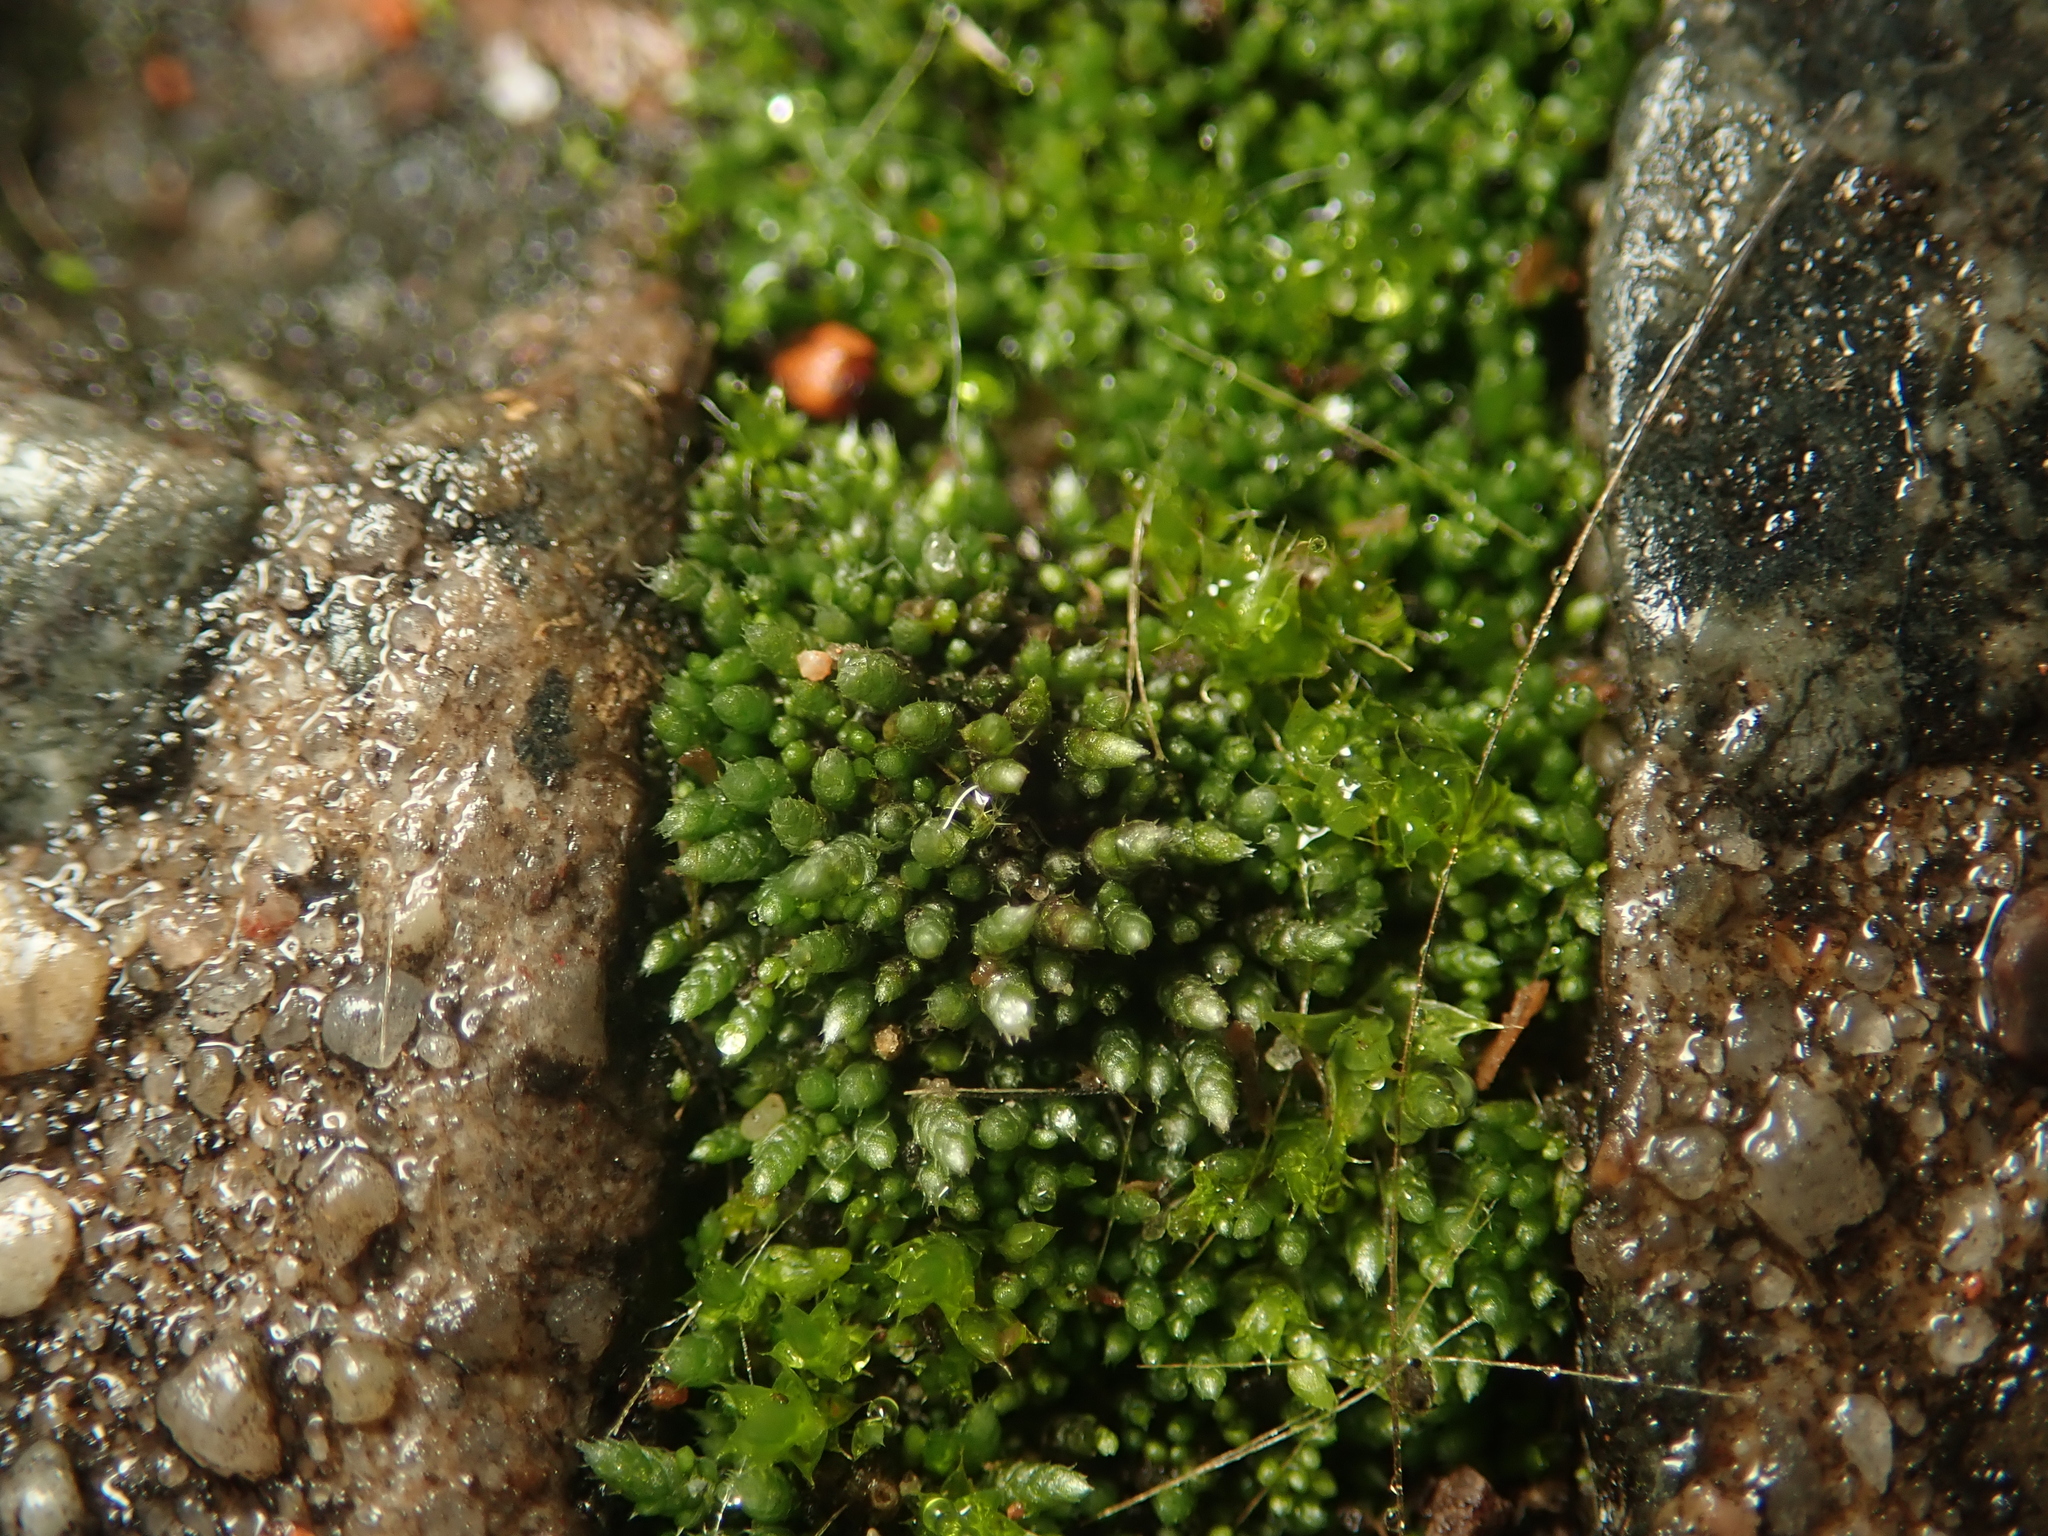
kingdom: Plantae
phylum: Bryophyta
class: Bryopsida
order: Bryales
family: Bryaceae
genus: Bryum
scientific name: Bryum argenteum
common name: Silver-moss
